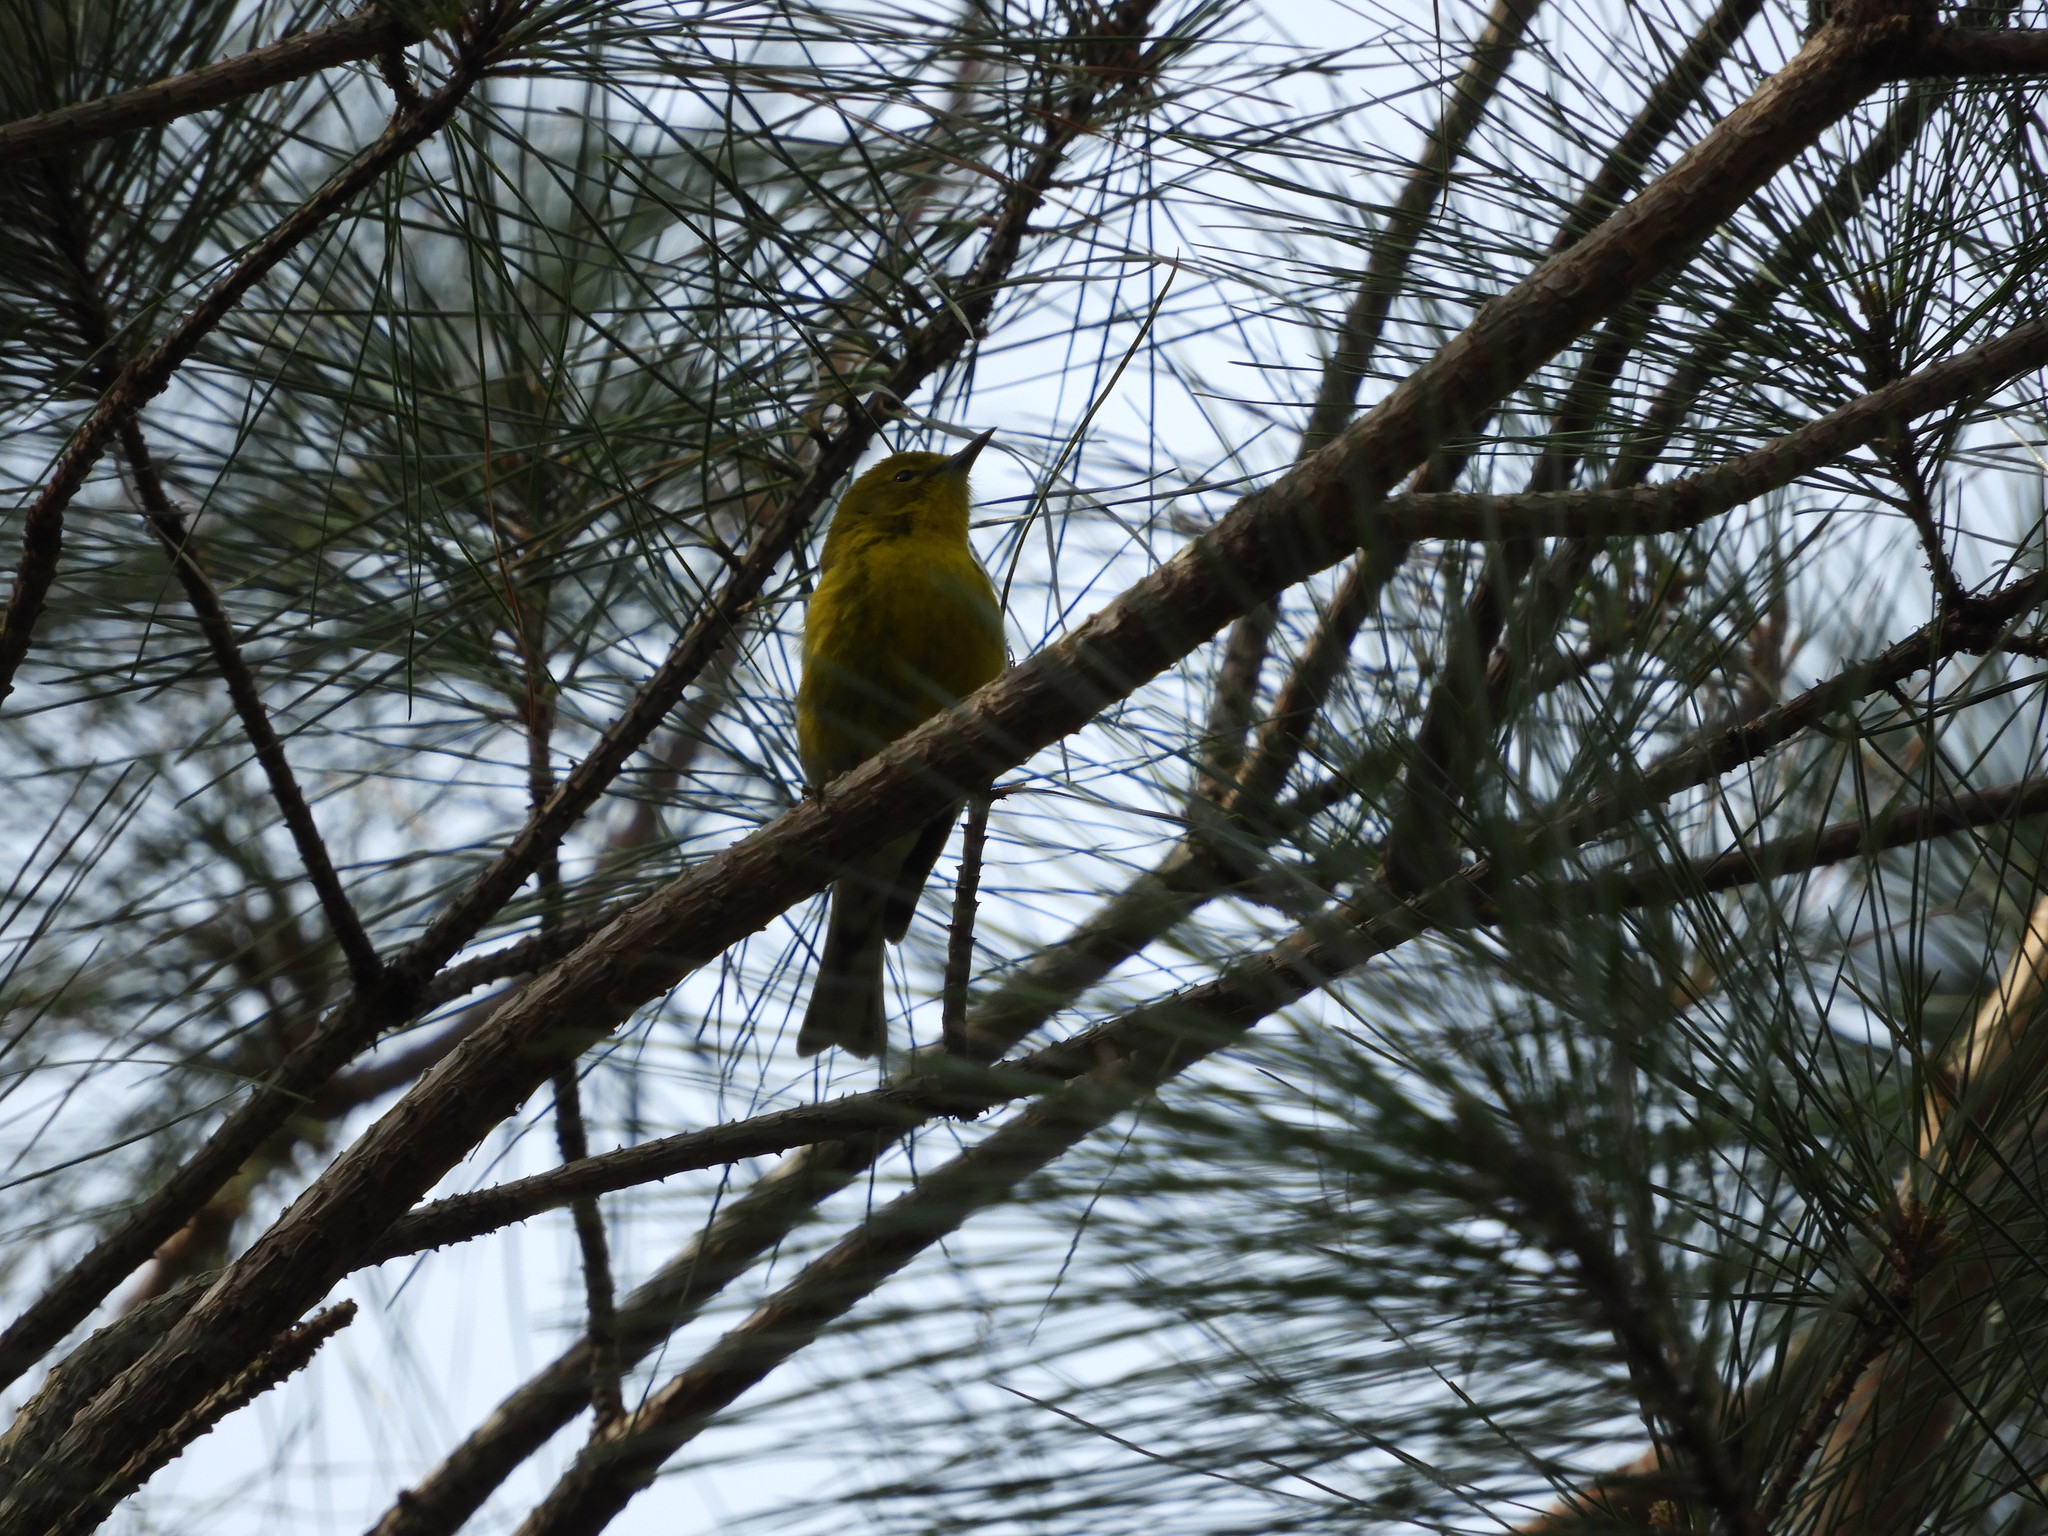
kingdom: Animalia
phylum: Chordata
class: Aves
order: Passeriformes
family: Parulidae
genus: Setophaga
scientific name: Setophaga pinus
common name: Pine warbler
